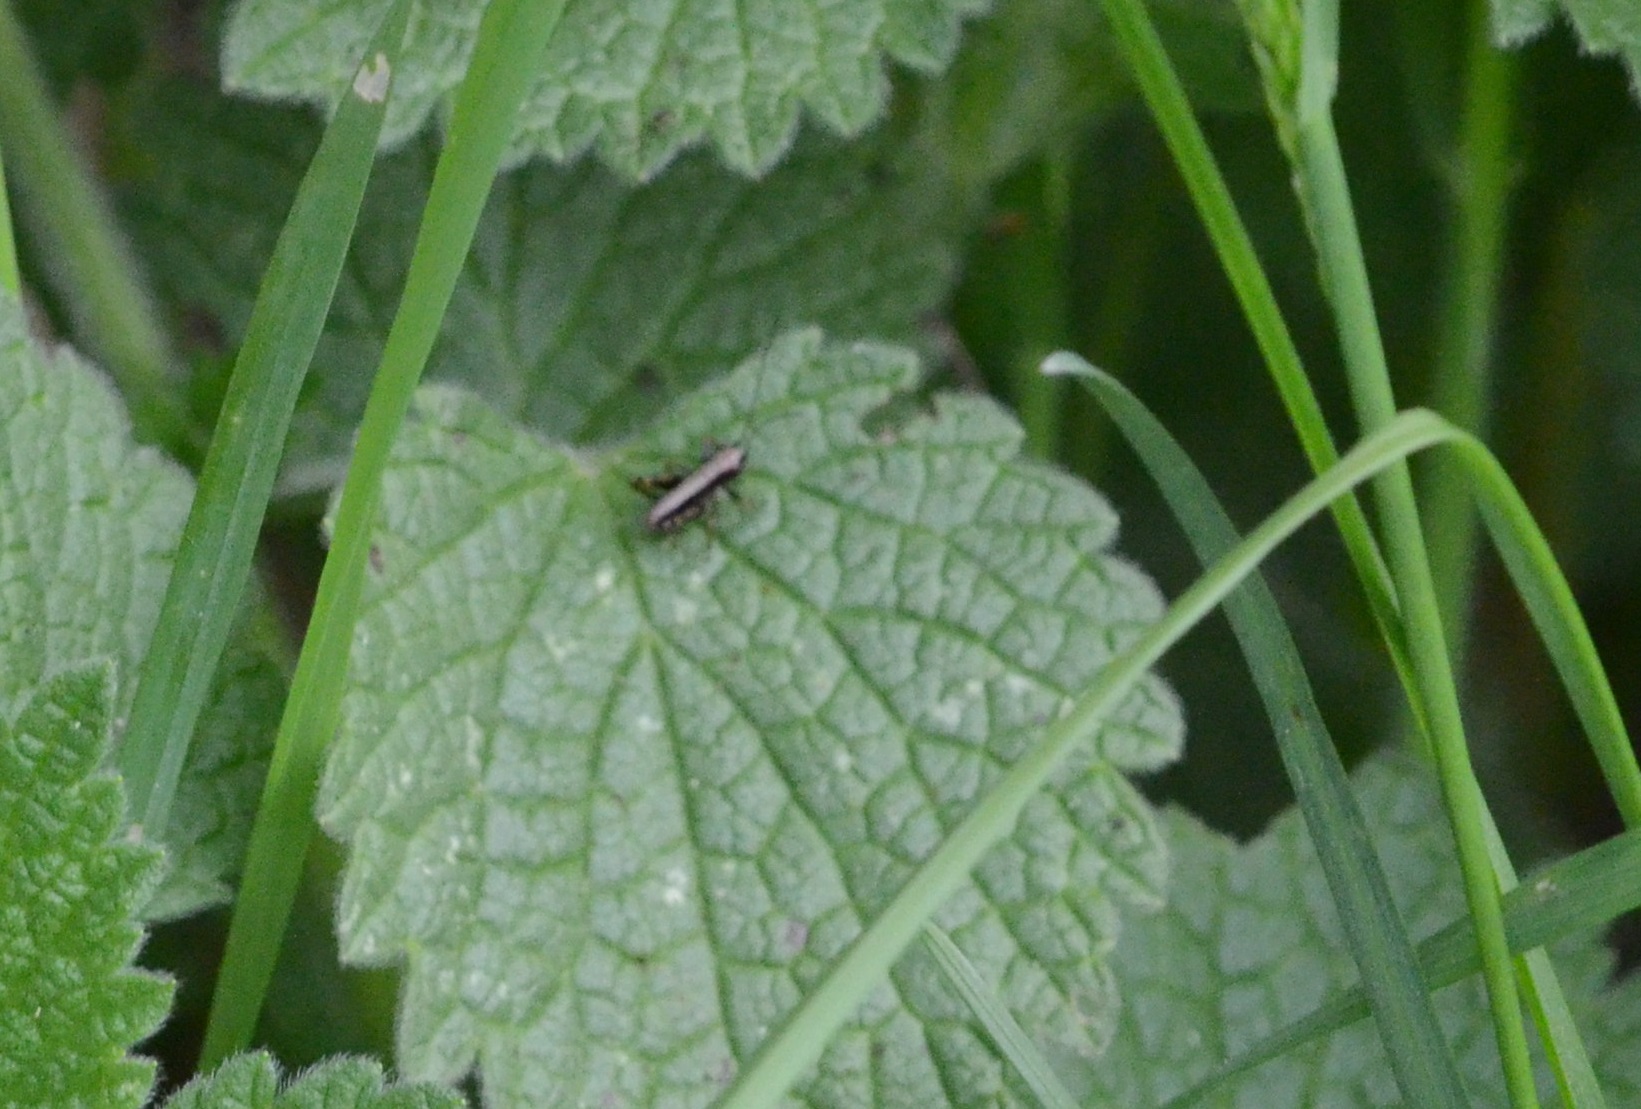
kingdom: Animalia
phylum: Arthropoda
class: Insecta
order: Orthoptera
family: Tettigoniidae
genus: Pholidoptera
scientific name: Pholidoptera griseoaptera
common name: Dark bush-cricket
